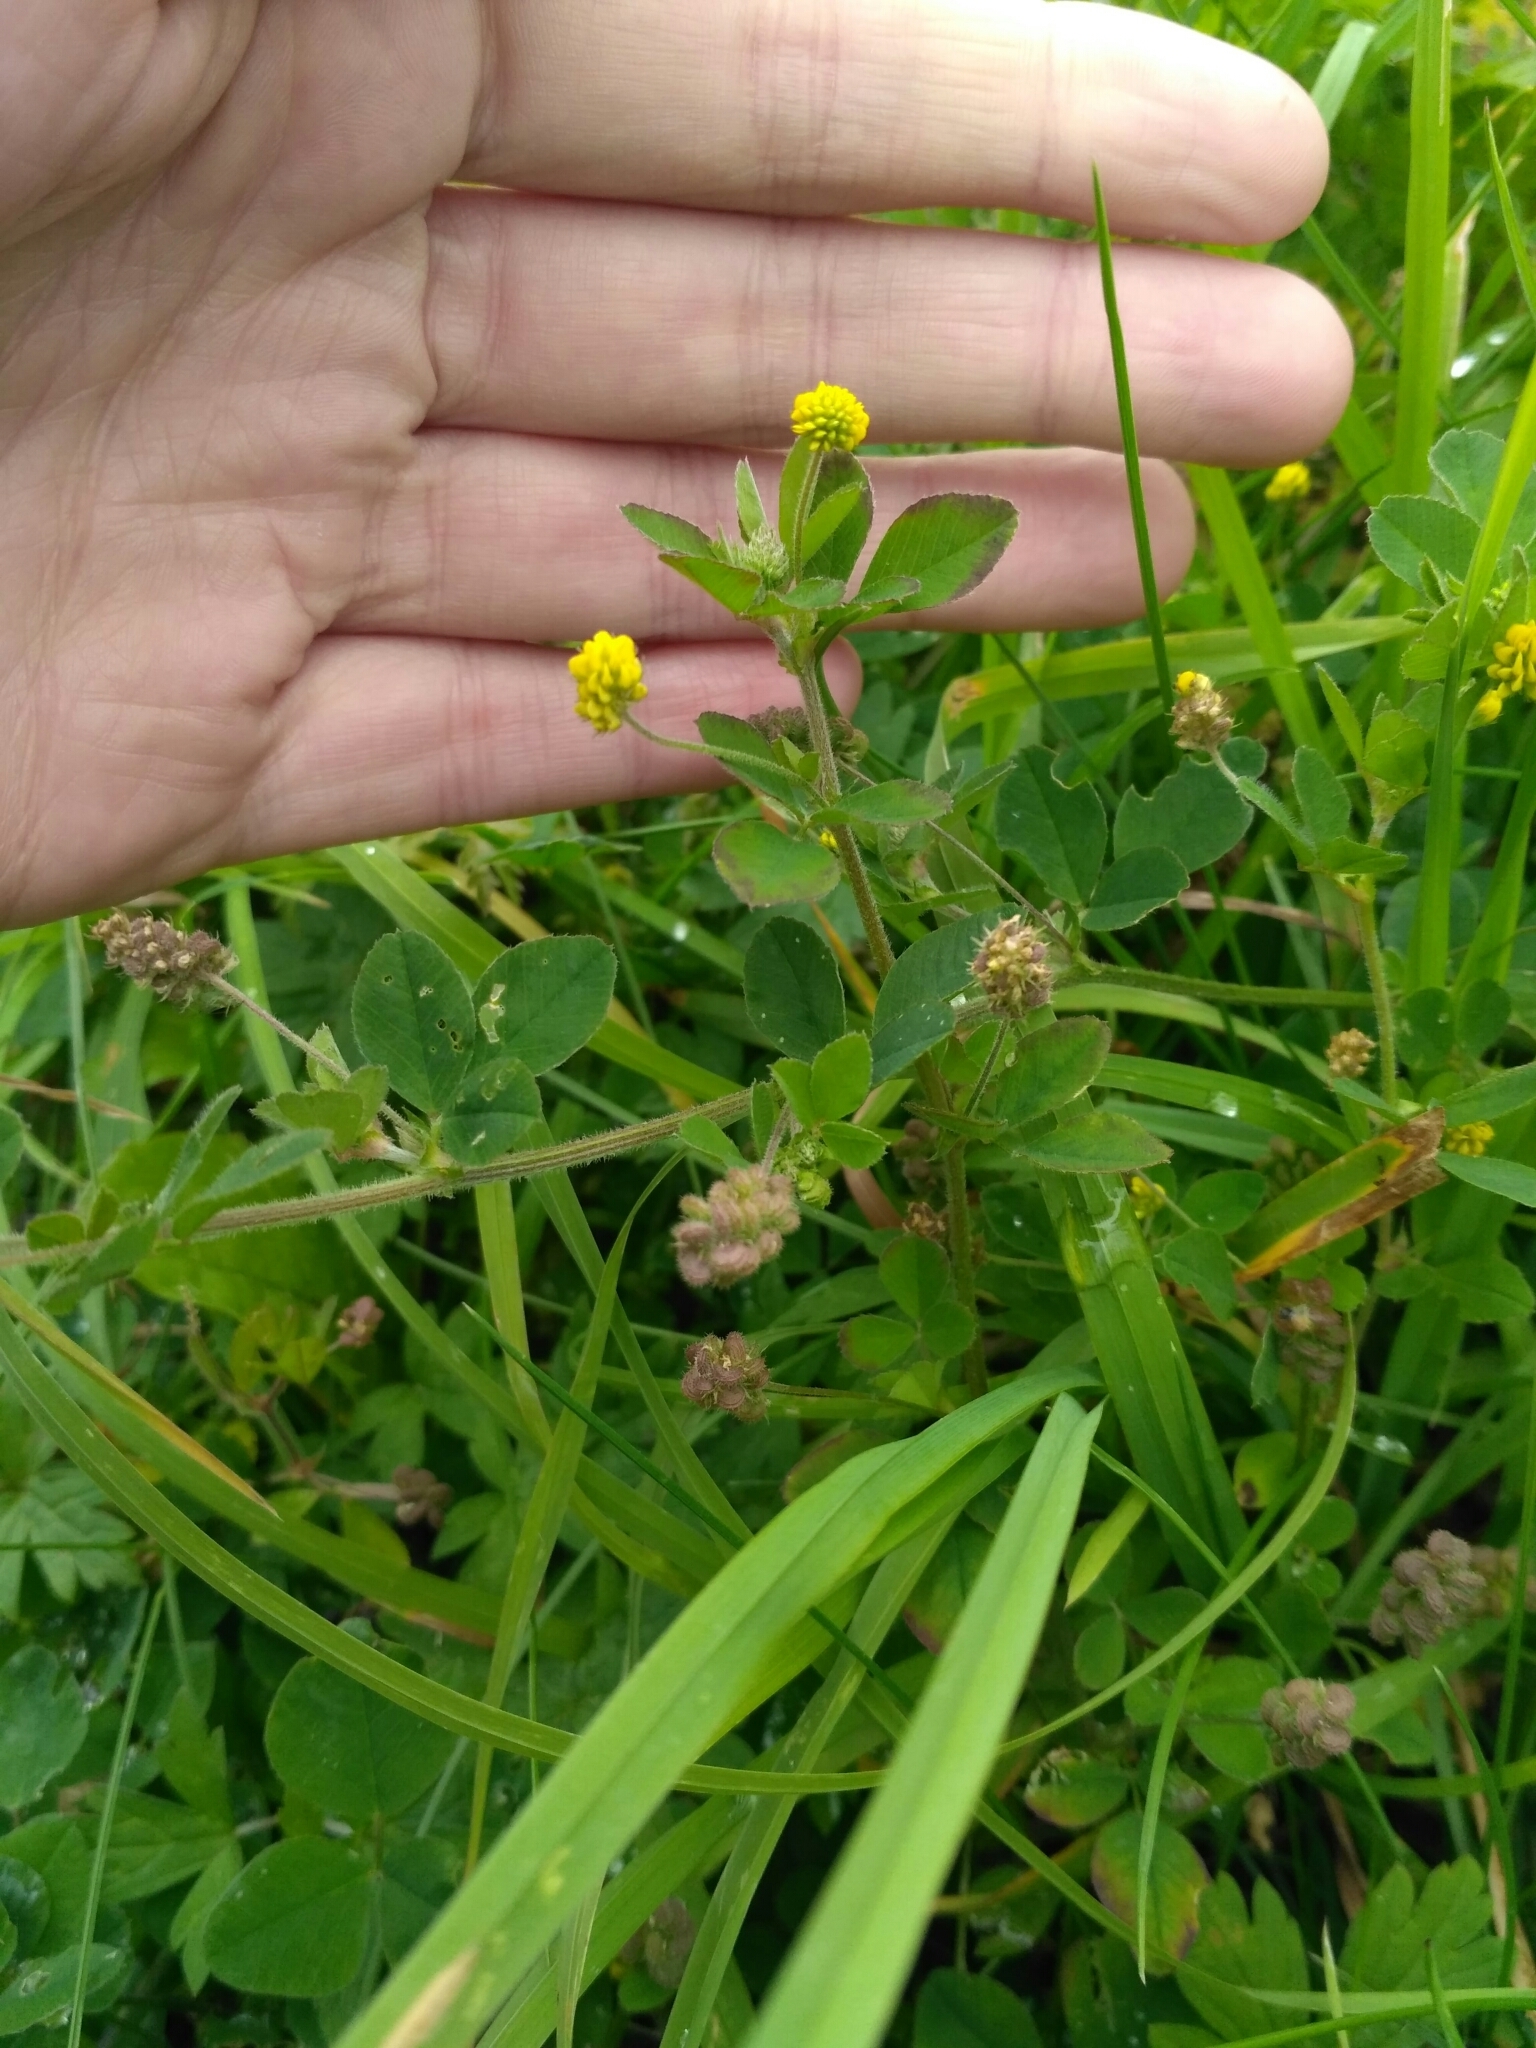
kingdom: Plantae
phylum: Tracheophyta
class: Magnoliopsida
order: Fabales
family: Fabaceae
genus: Medicago
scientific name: Medicago lupulina
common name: Black medick
